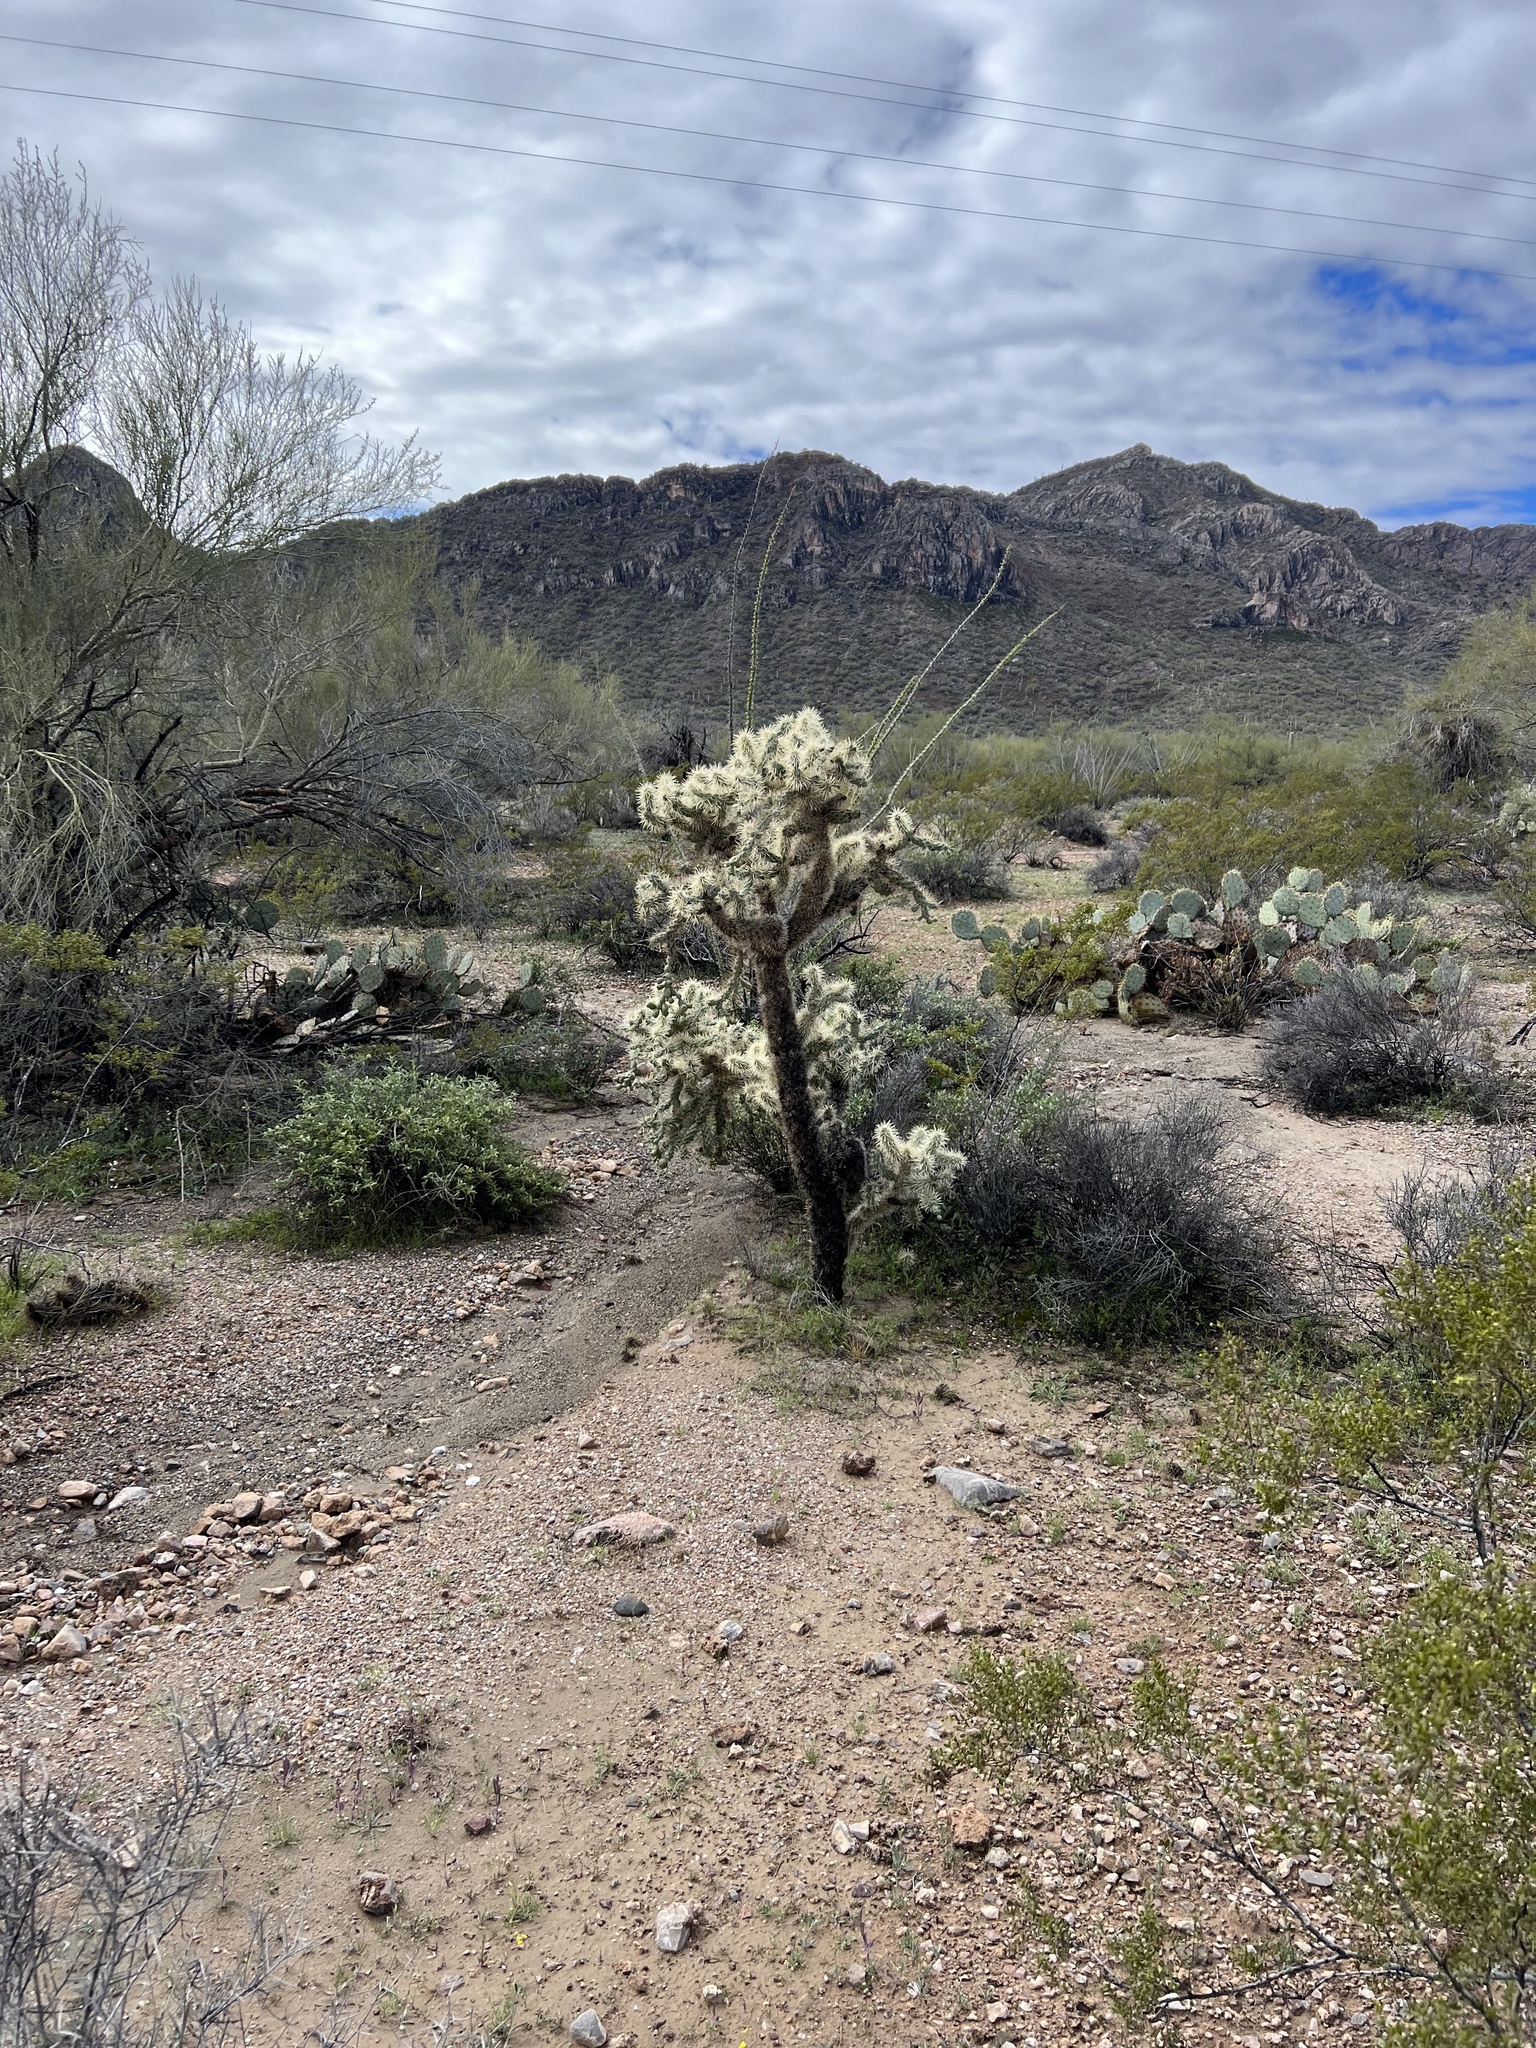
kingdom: Plantae
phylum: Tracheophyta
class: Magnoliopsida
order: Caryophyllales
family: Cactaceae
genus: Cylindropuntia
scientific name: Cylindropuntia fulgida
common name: Jumping cholla
